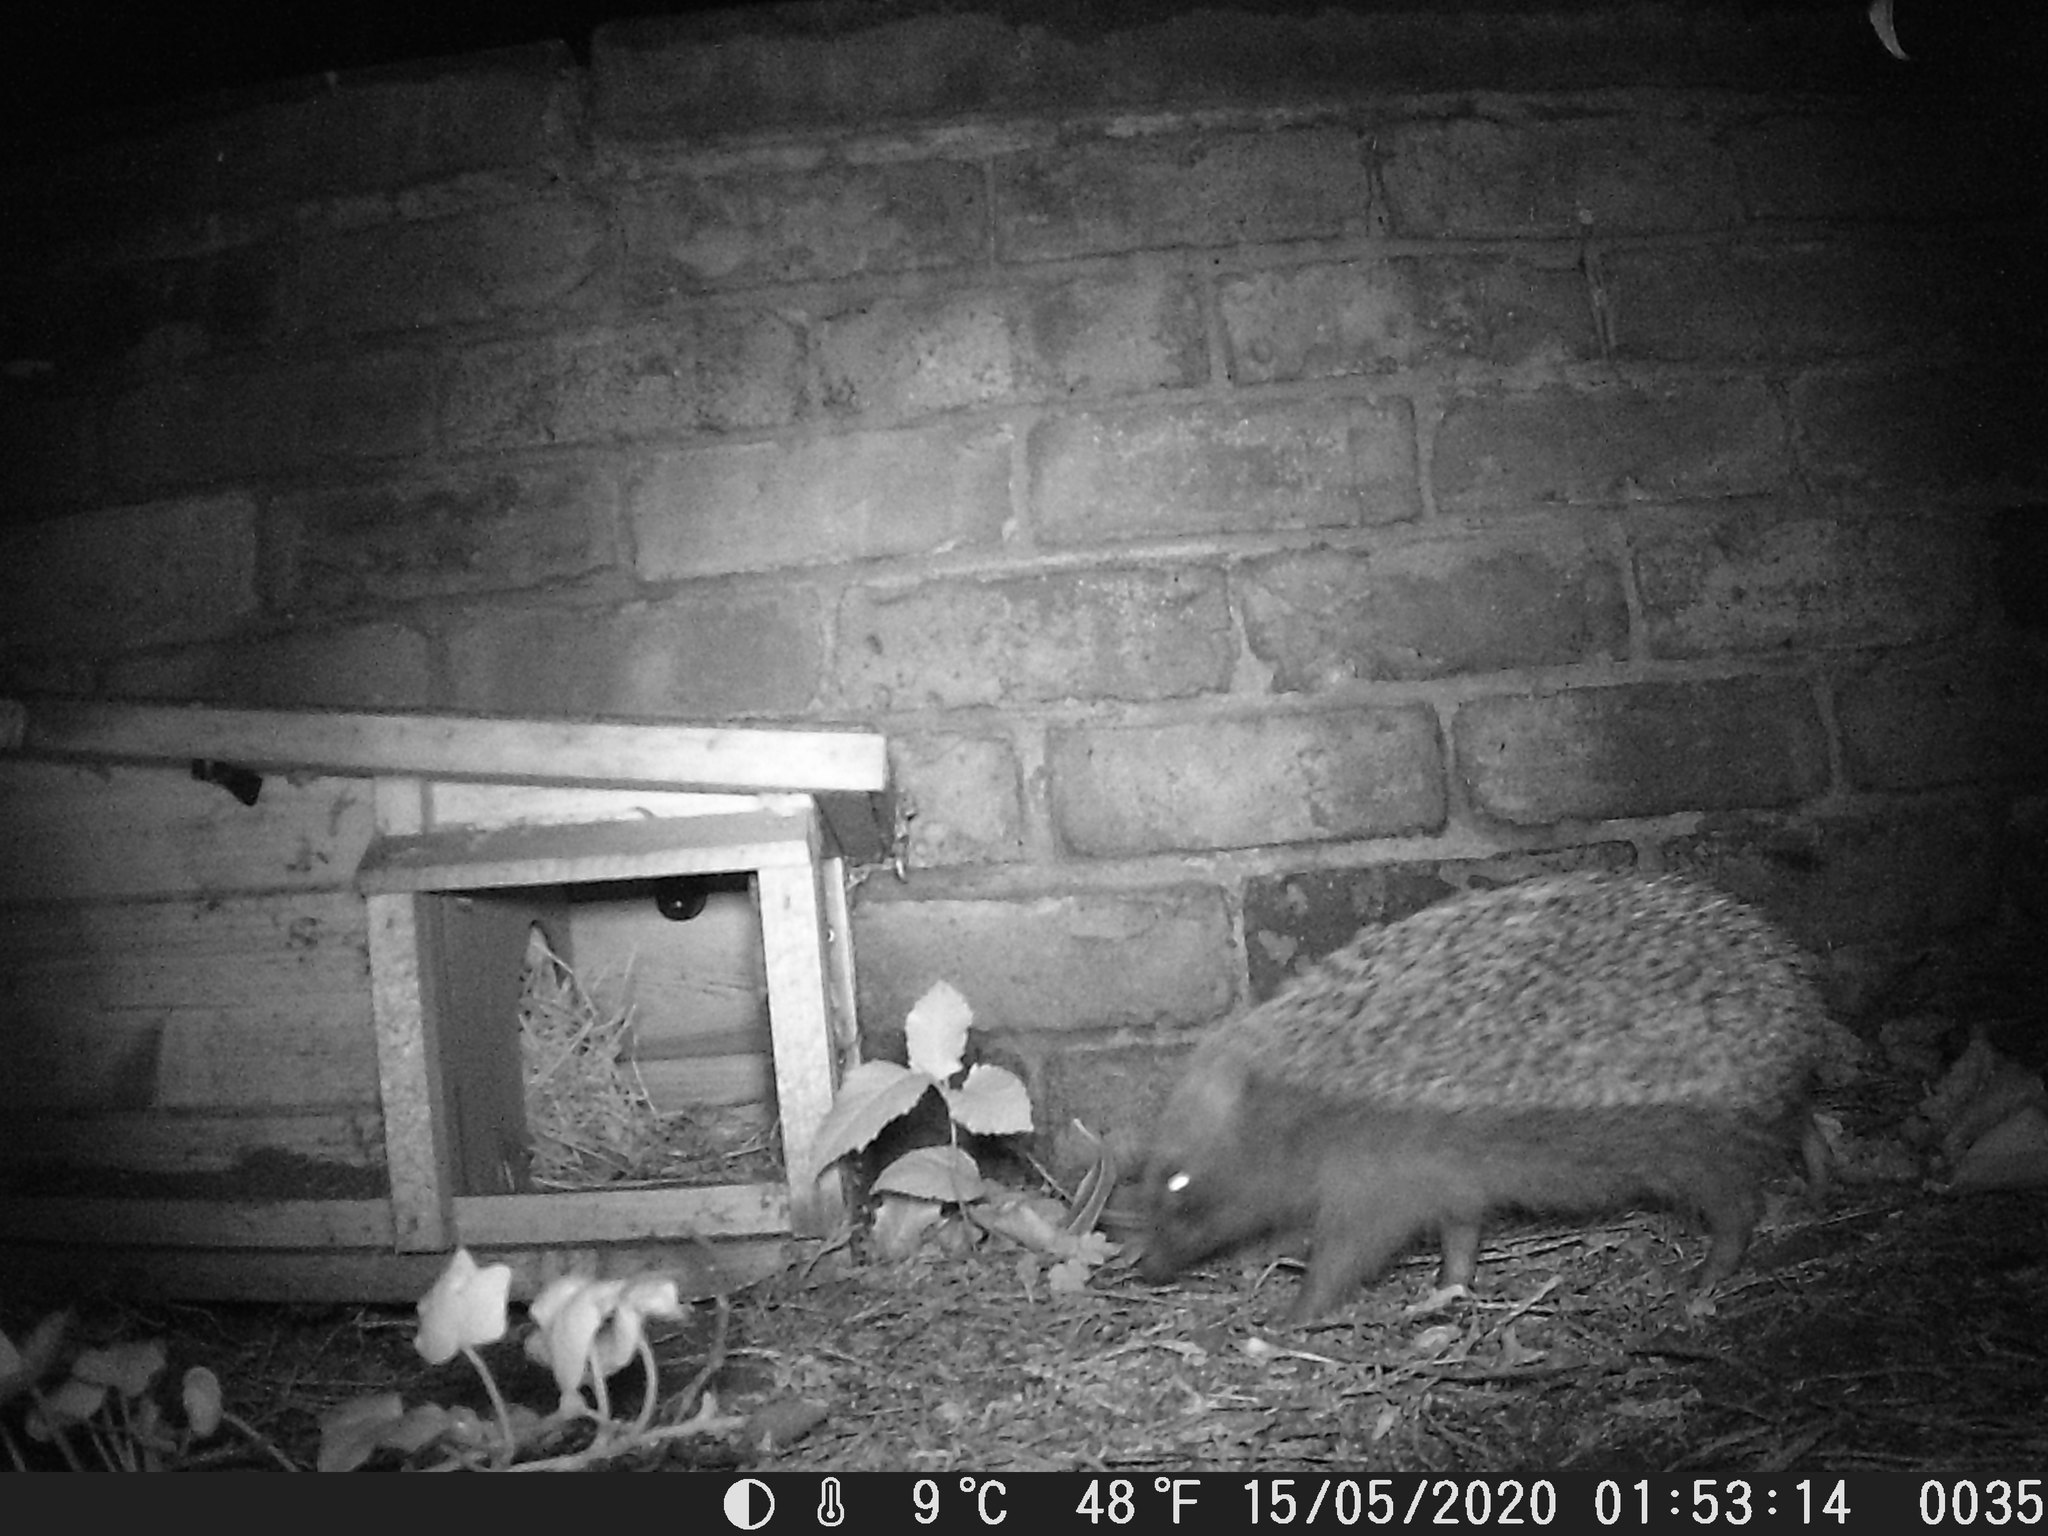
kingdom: Animalia
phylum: Chordata
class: Mammalia
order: Erinaceomorpha
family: Erinaceidae
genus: Erinaceus
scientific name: Erinaceus europaeus
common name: West european hedgehog
